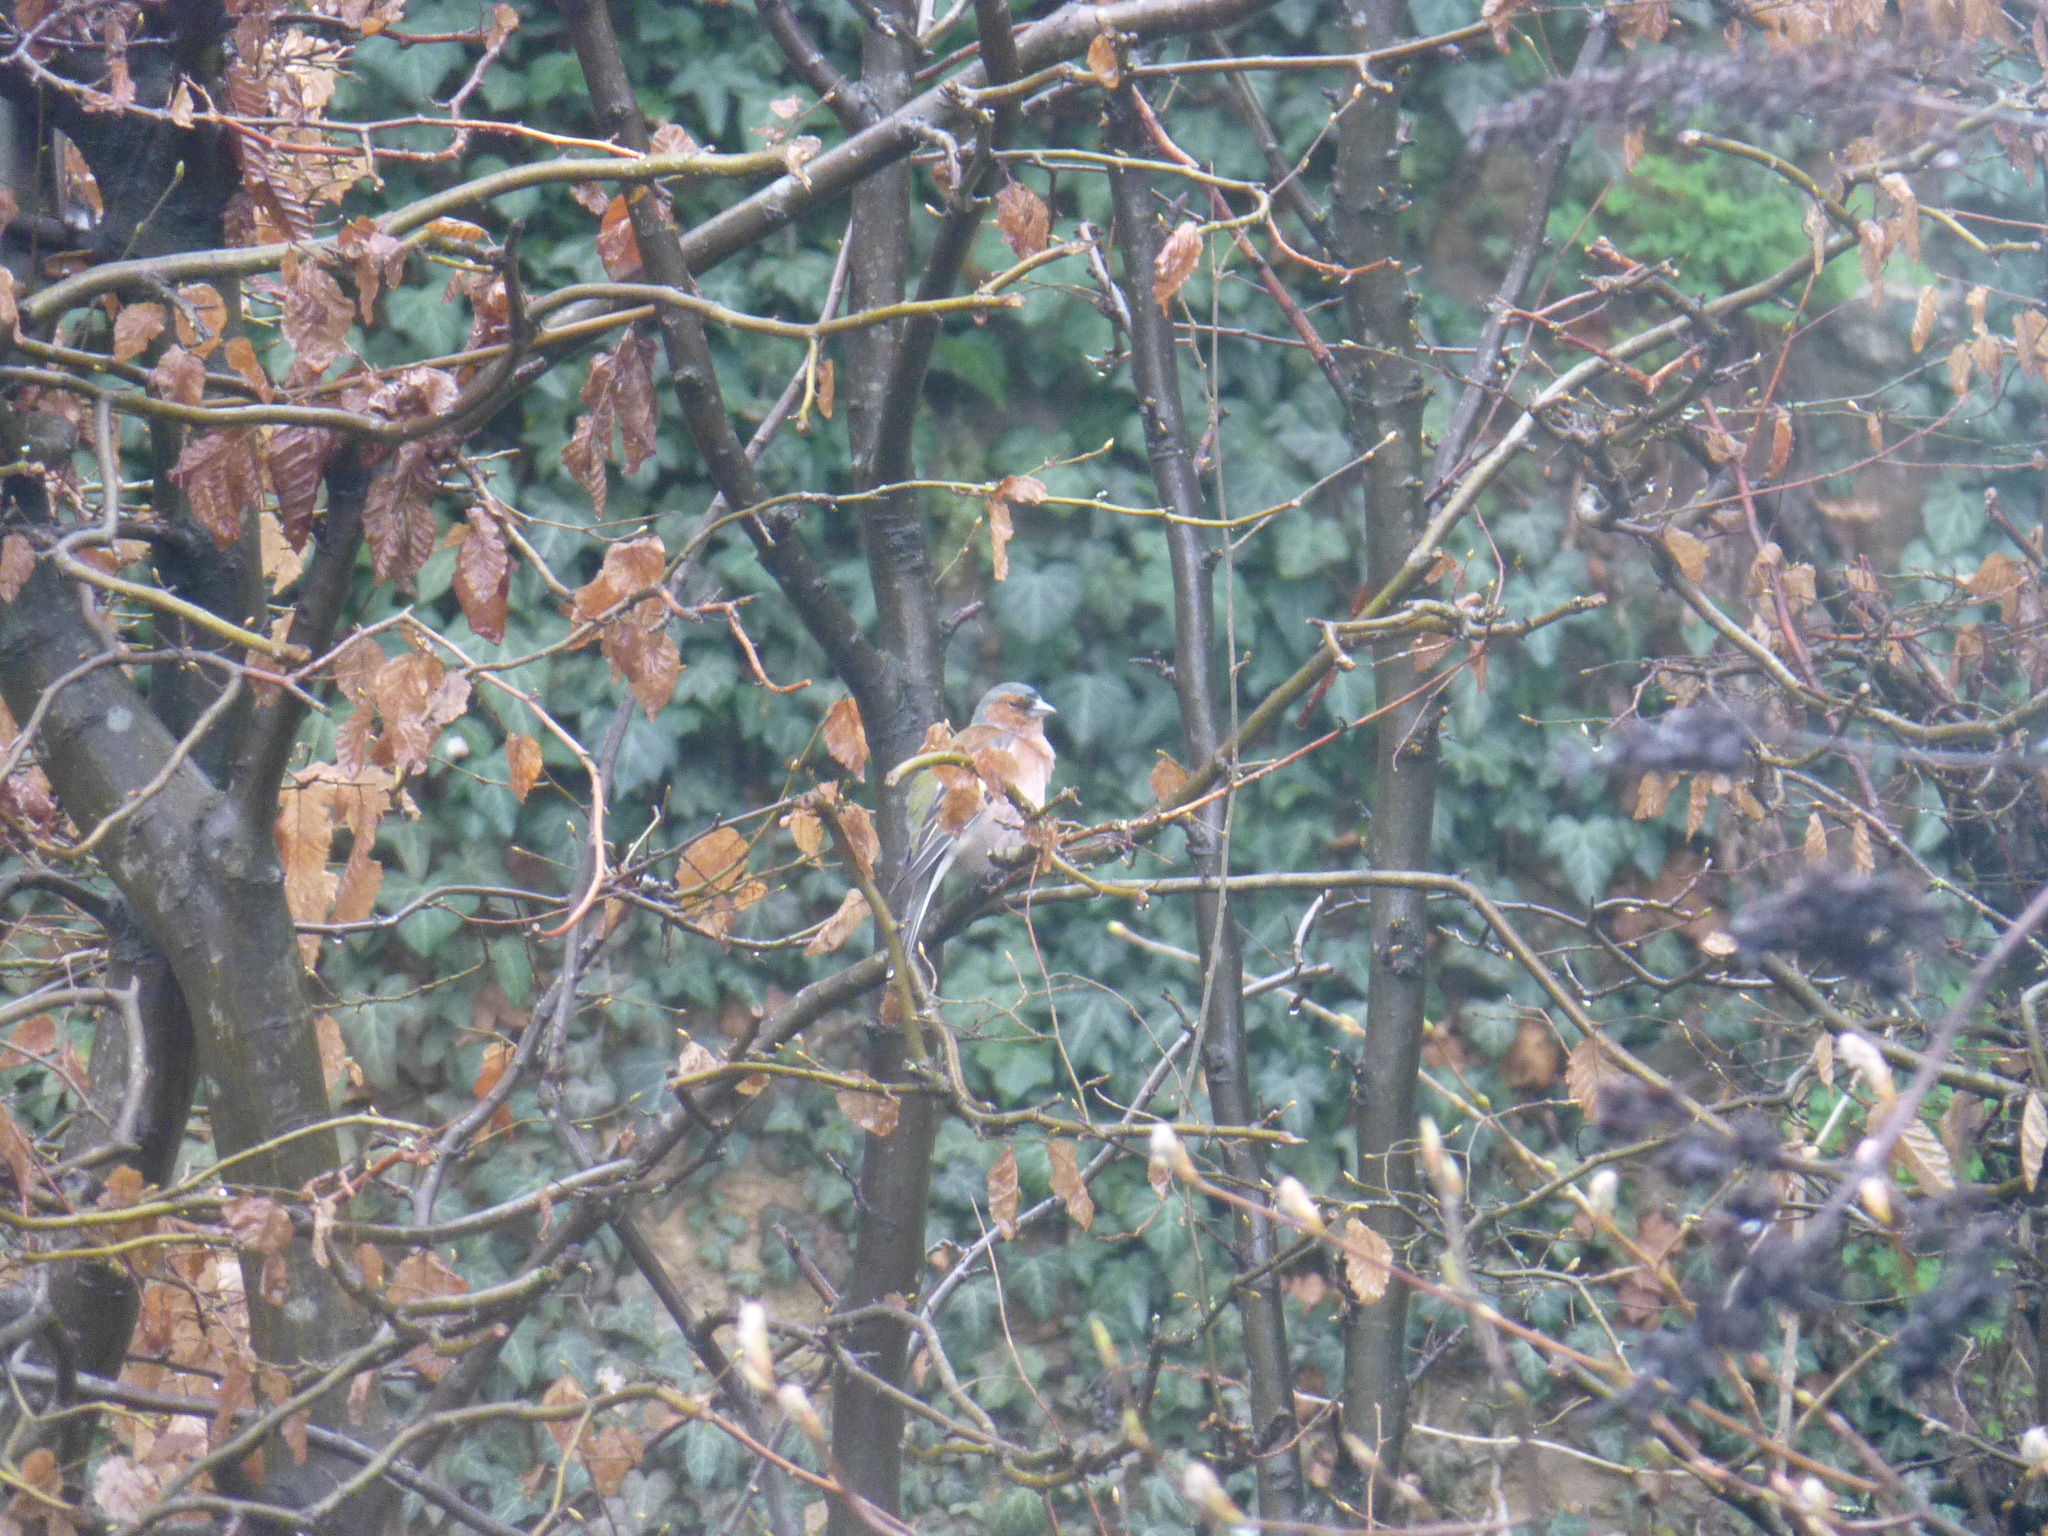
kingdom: Animalia
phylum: Chordata
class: Aves
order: Passeriformes
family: Fringillidae
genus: Fringilla
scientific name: Fringilla coelebs
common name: Common chaffinch
